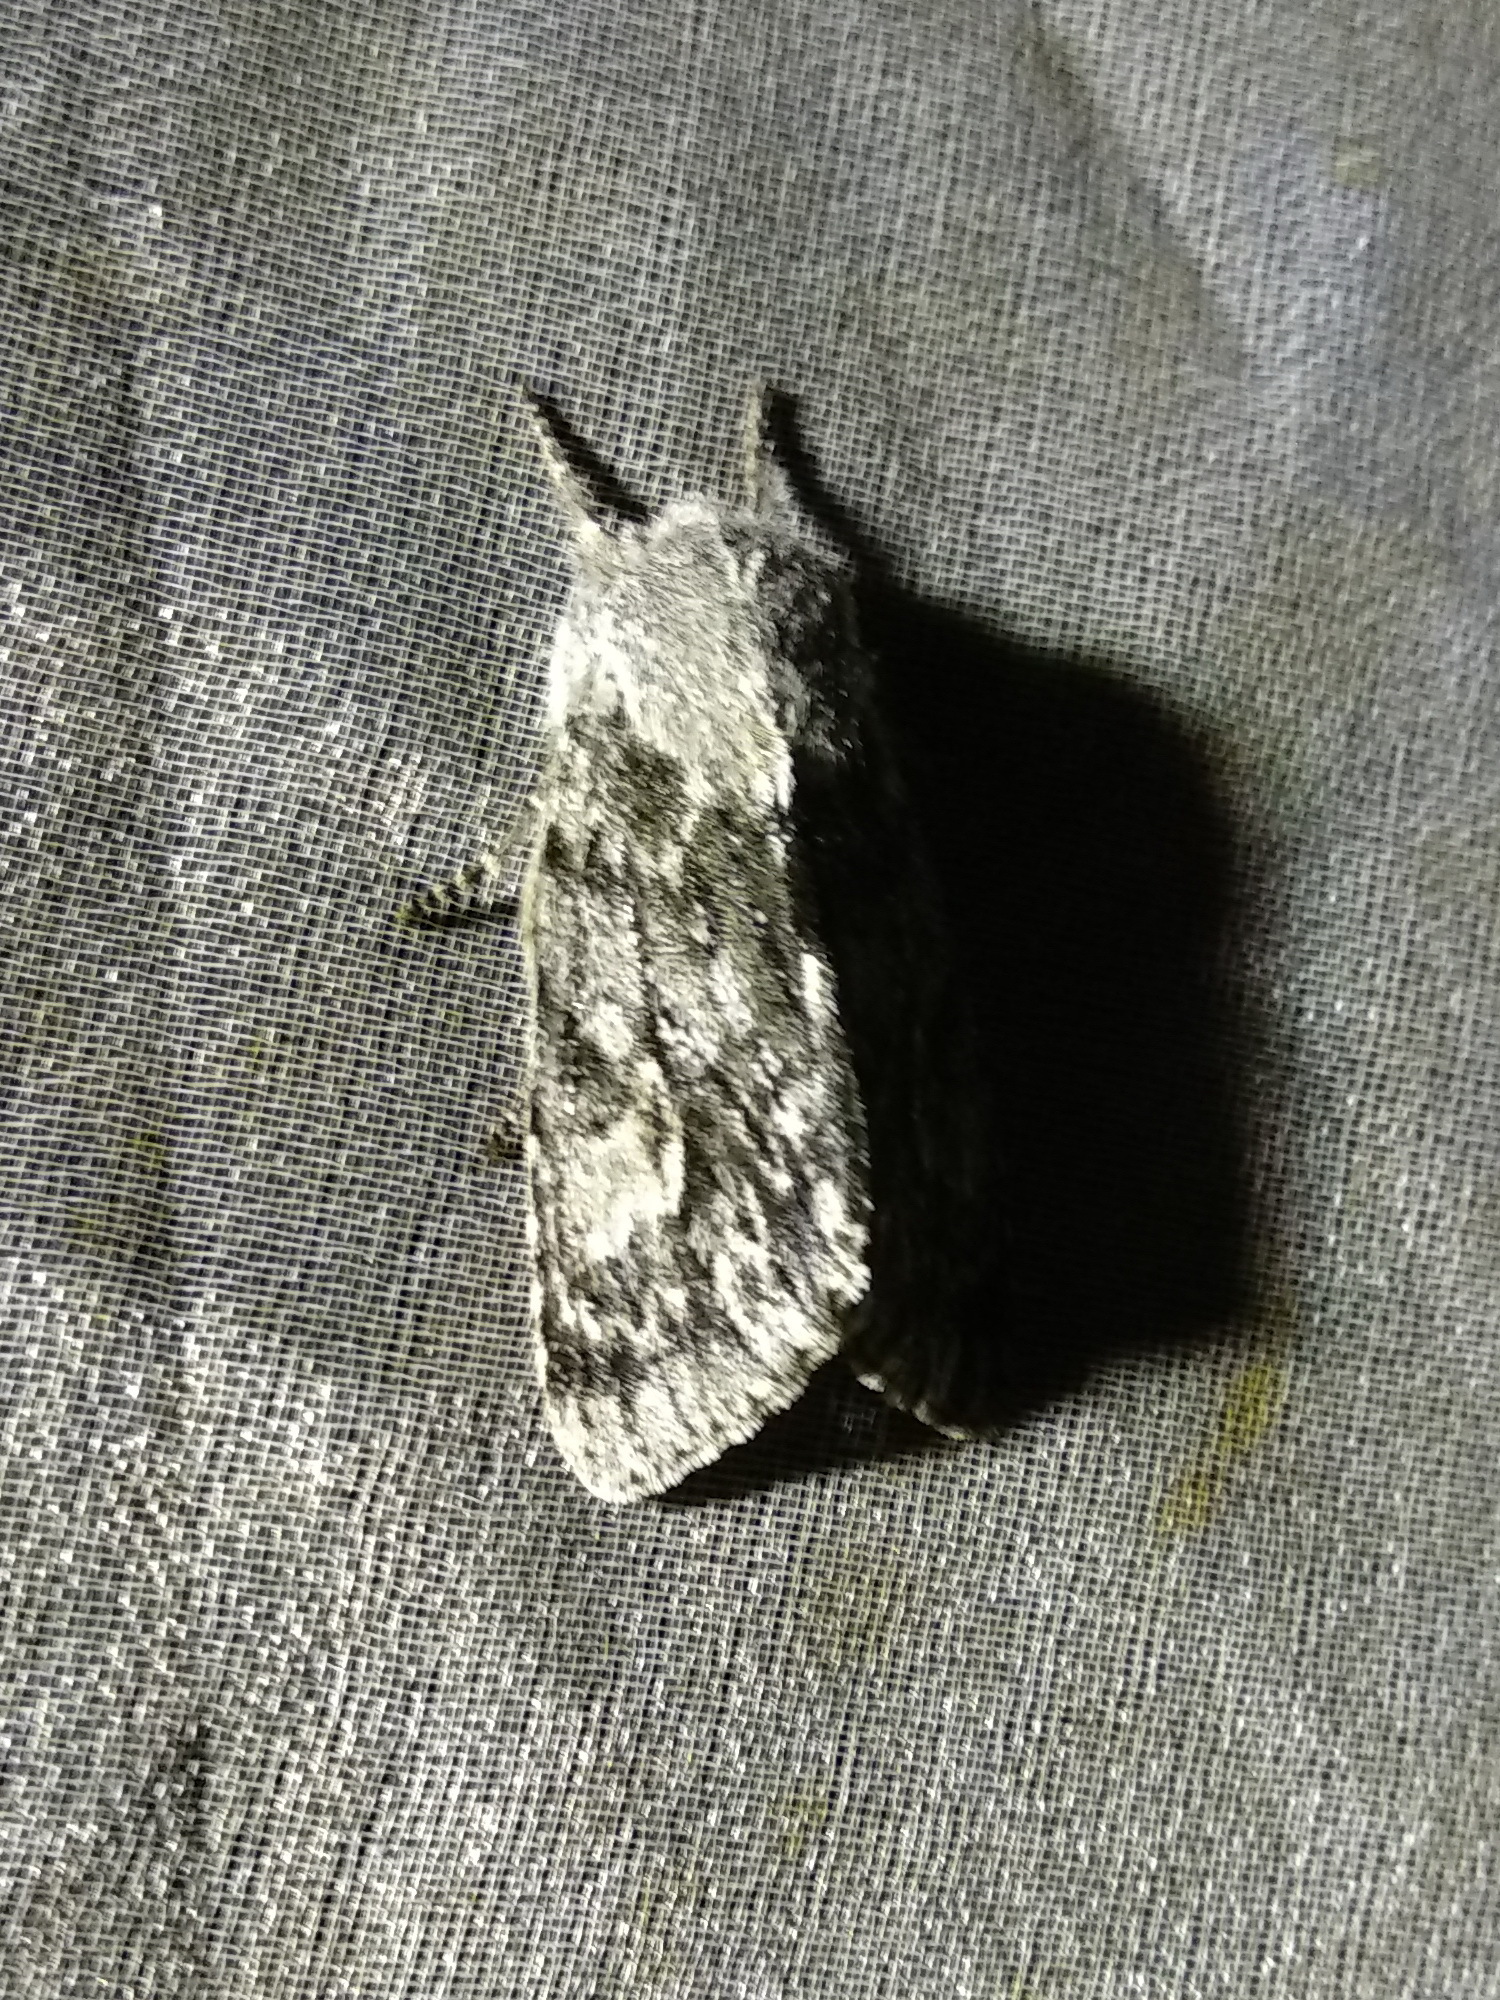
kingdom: Animalia
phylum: Arthropoda
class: Insecta
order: Lepidoptera
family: Noctuidae
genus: Brachionycha
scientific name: Brachionycha sajana
